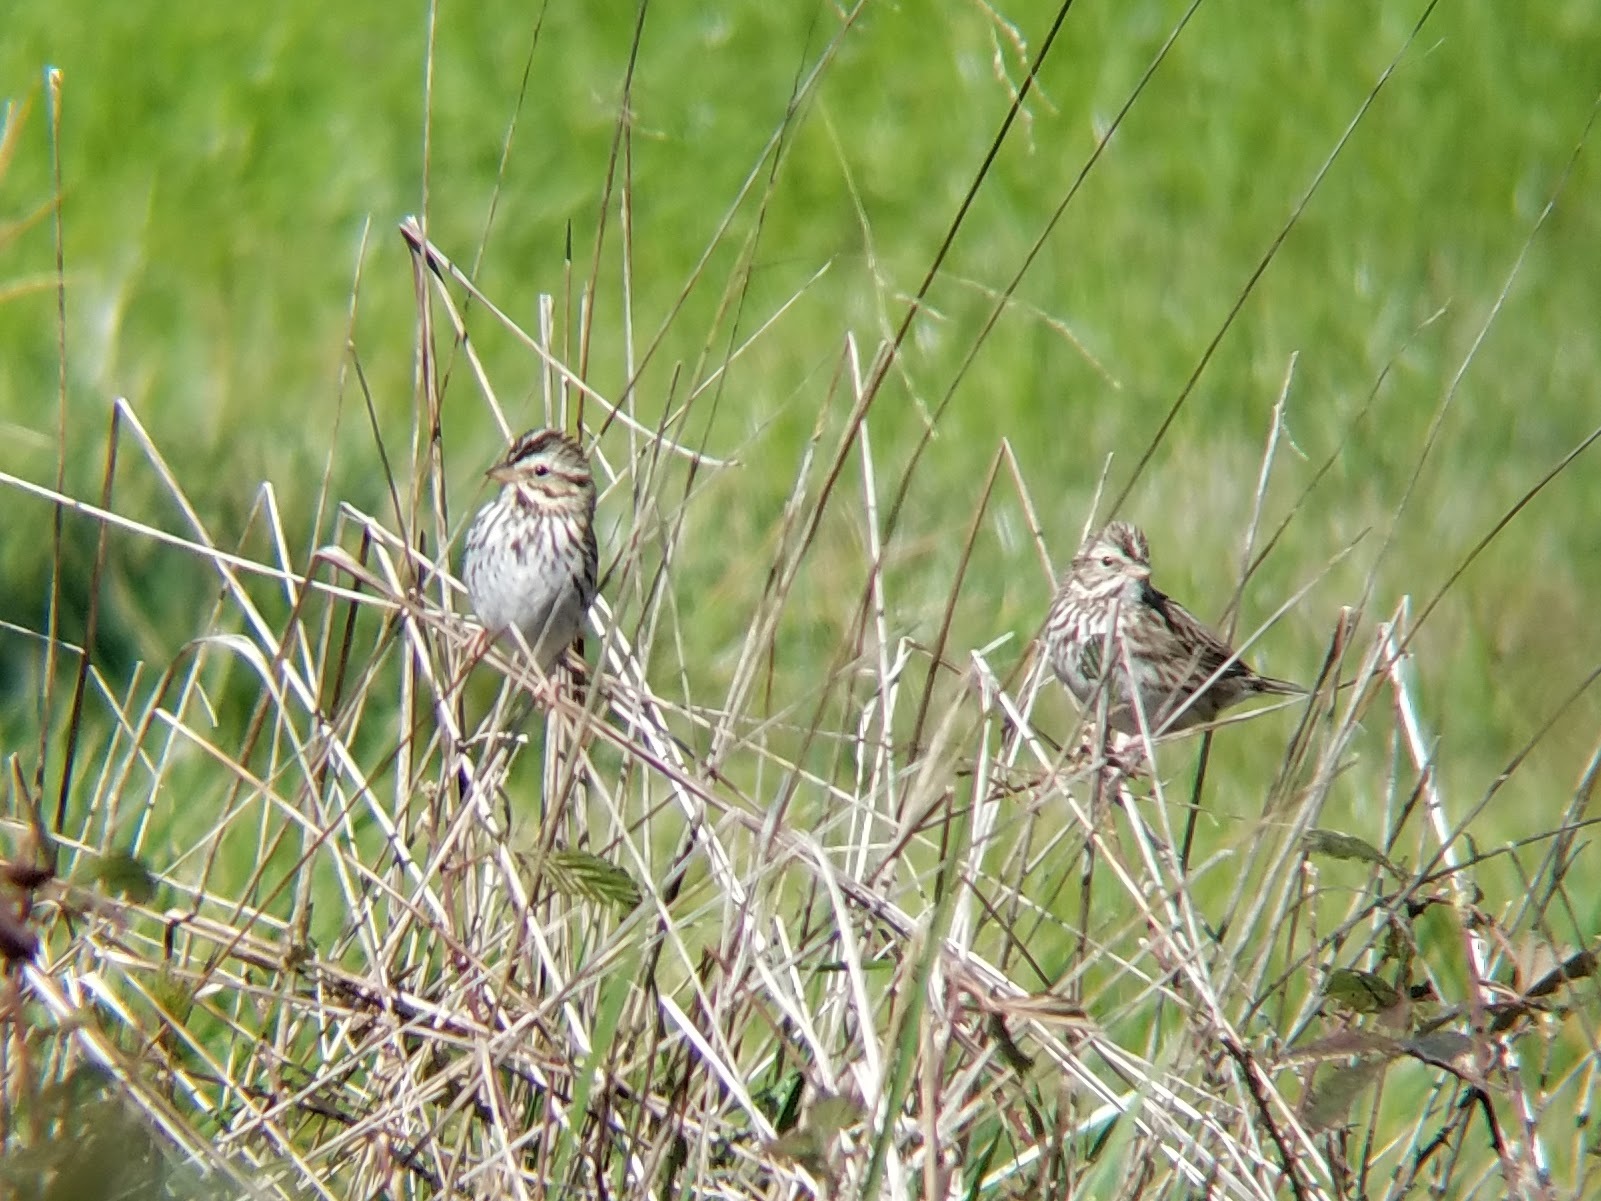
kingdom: Animalia
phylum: Chordata
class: Aves
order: Passeriformes
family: Passerellidae
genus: Passerculus
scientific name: Passerculus sandwichensis
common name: Savannah sparrow
